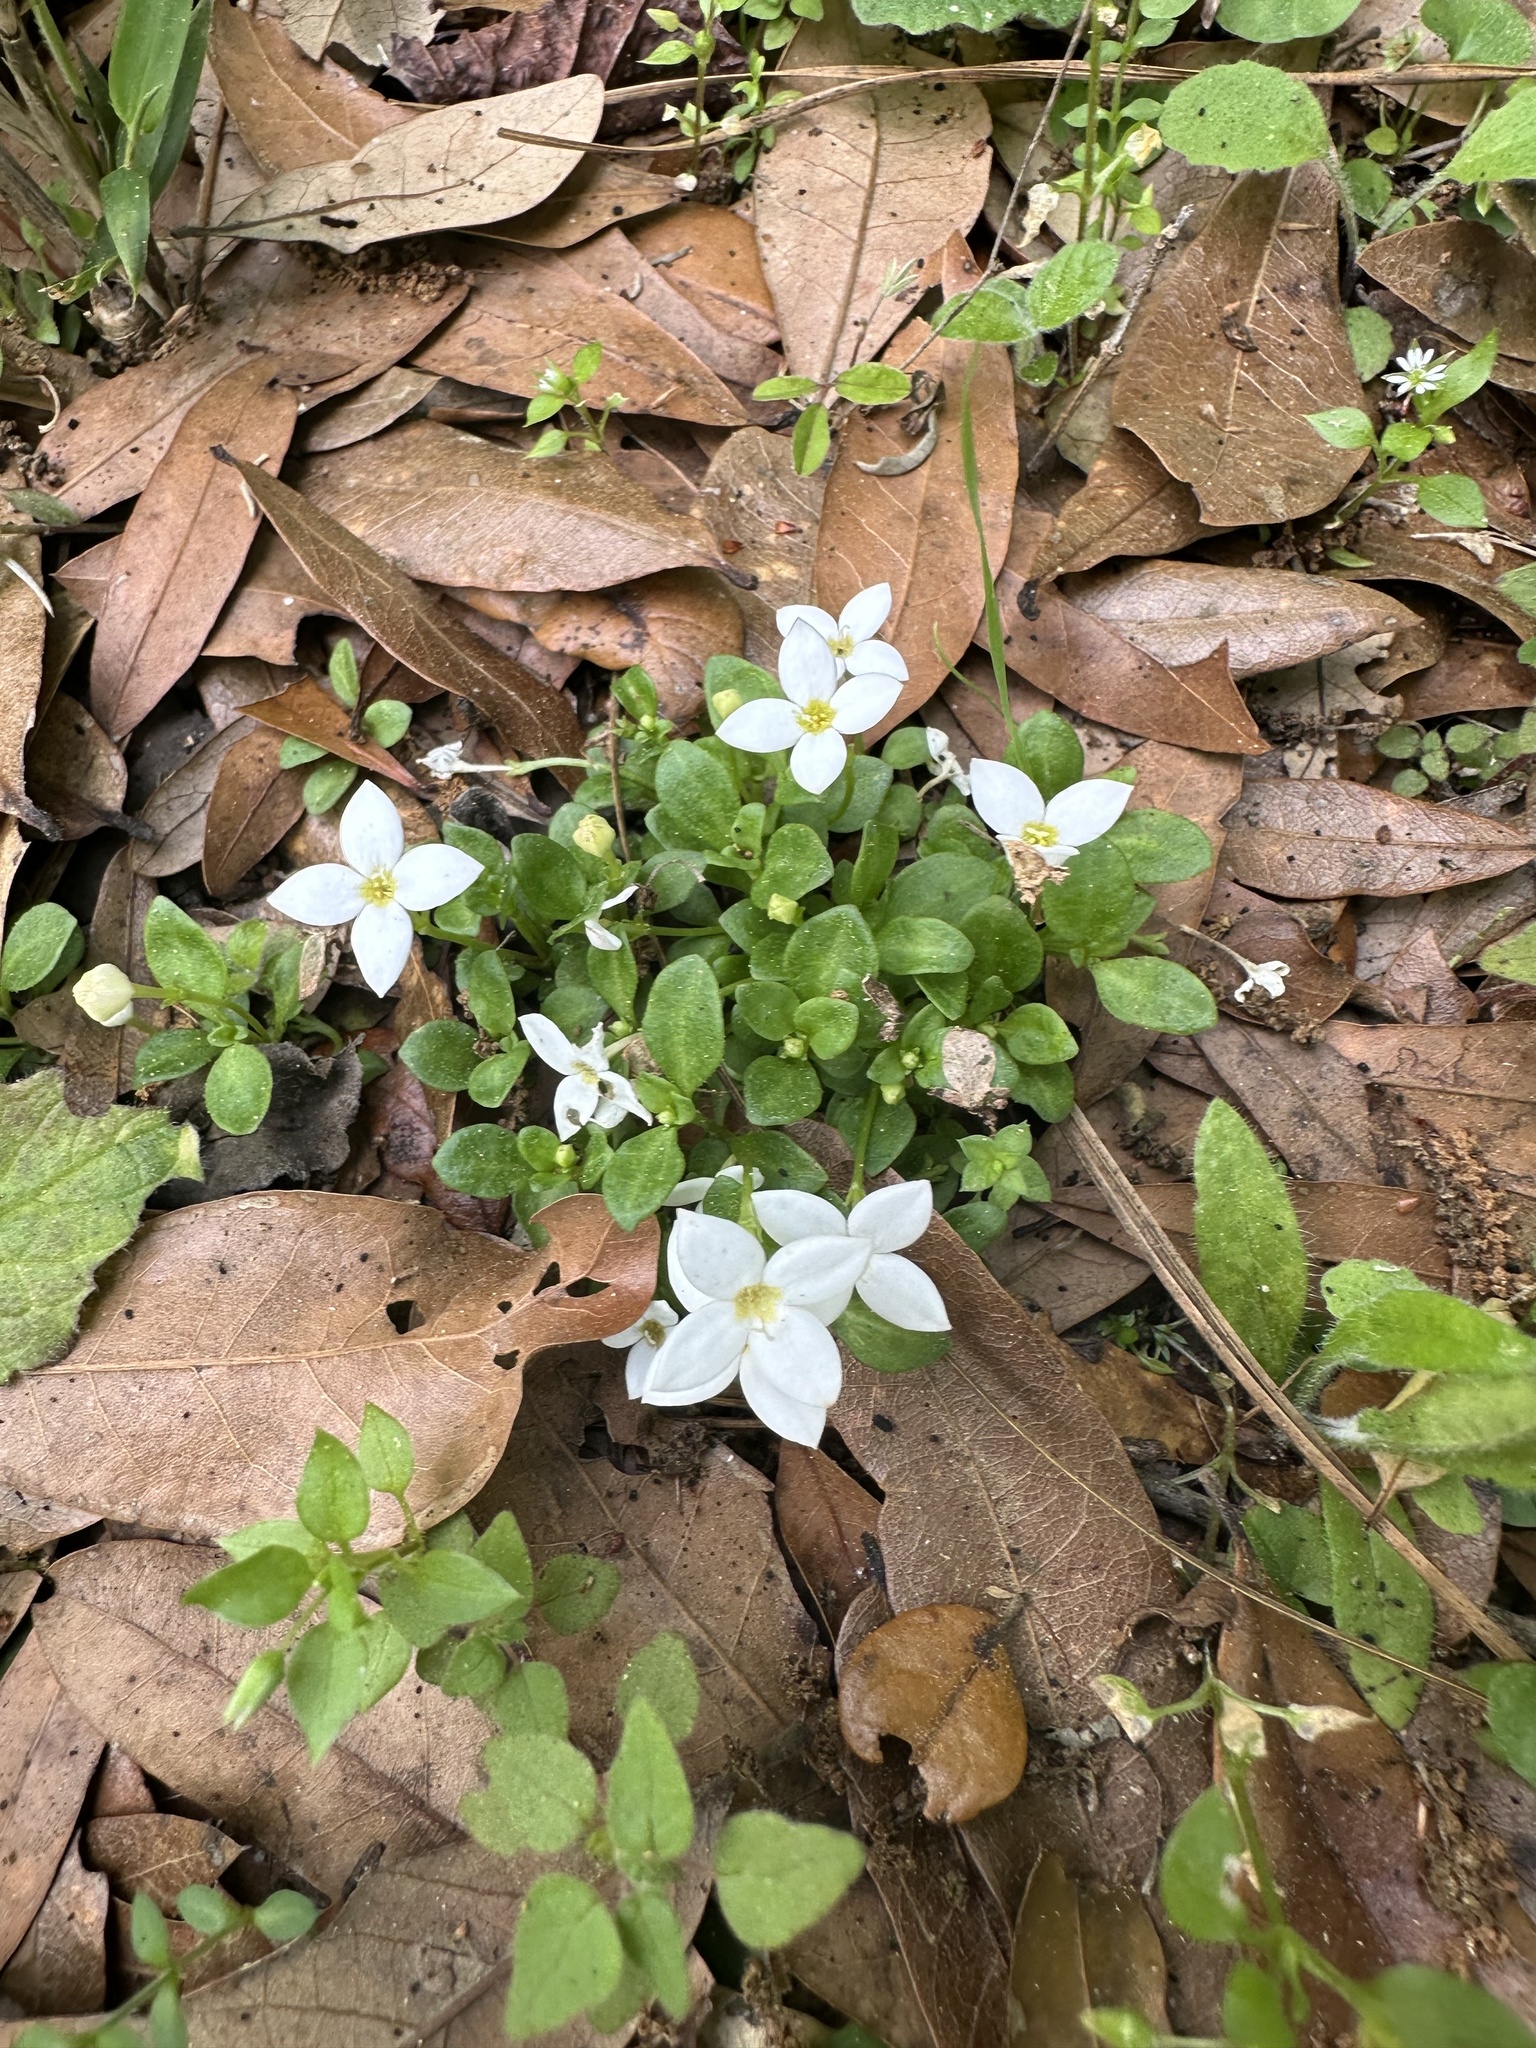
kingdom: Plantae
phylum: Tracheophyta
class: Magnoliopsida
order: Gentianales
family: Rubiaceae
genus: Houstonia
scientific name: Houstonia procumbens
